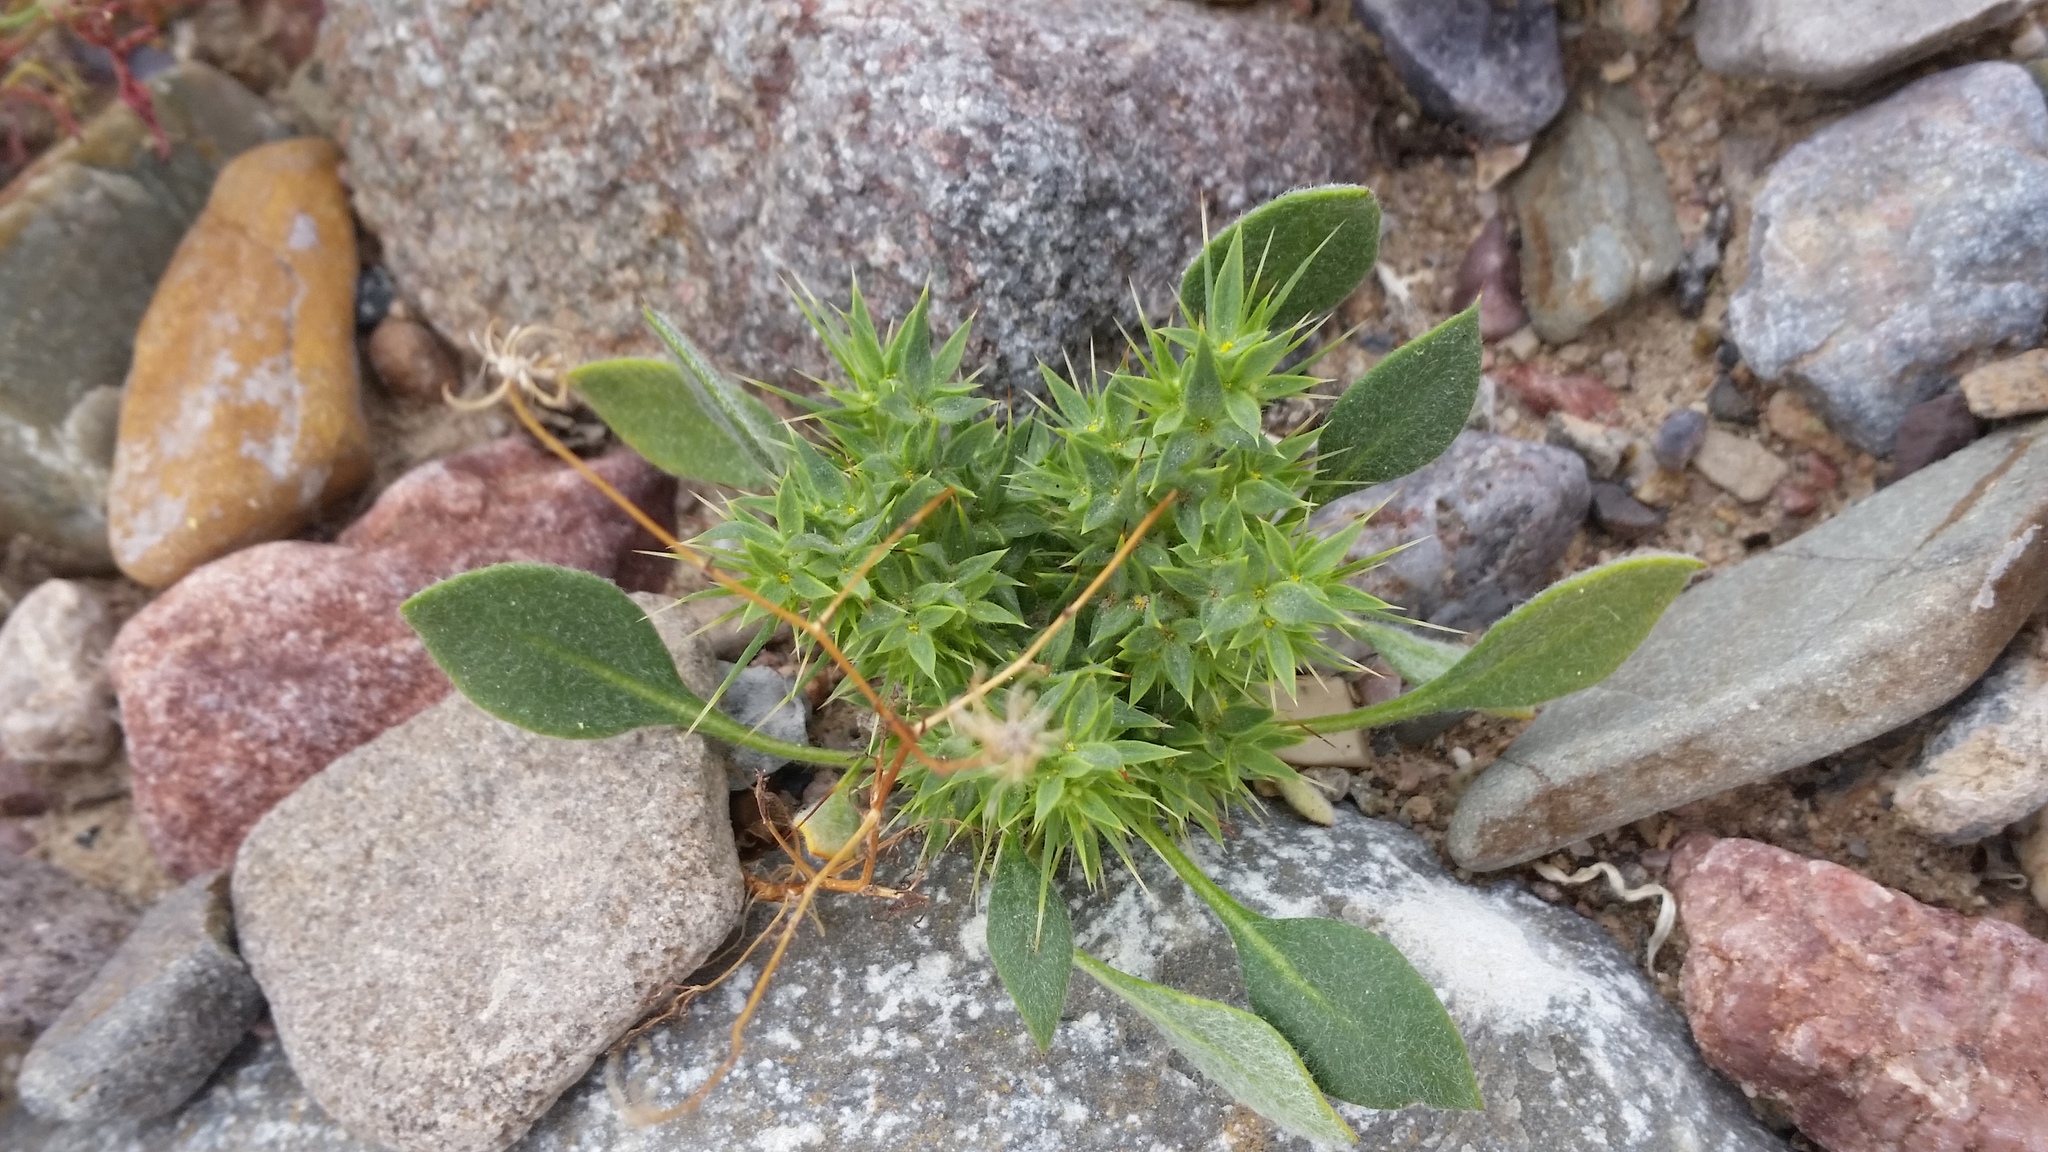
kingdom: Plantae
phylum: Tracheophyta
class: Magnoliopsida
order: Caryophyllales
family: Polygonaceae
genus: Chorizanthe
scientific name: Chorizanthe rigida
